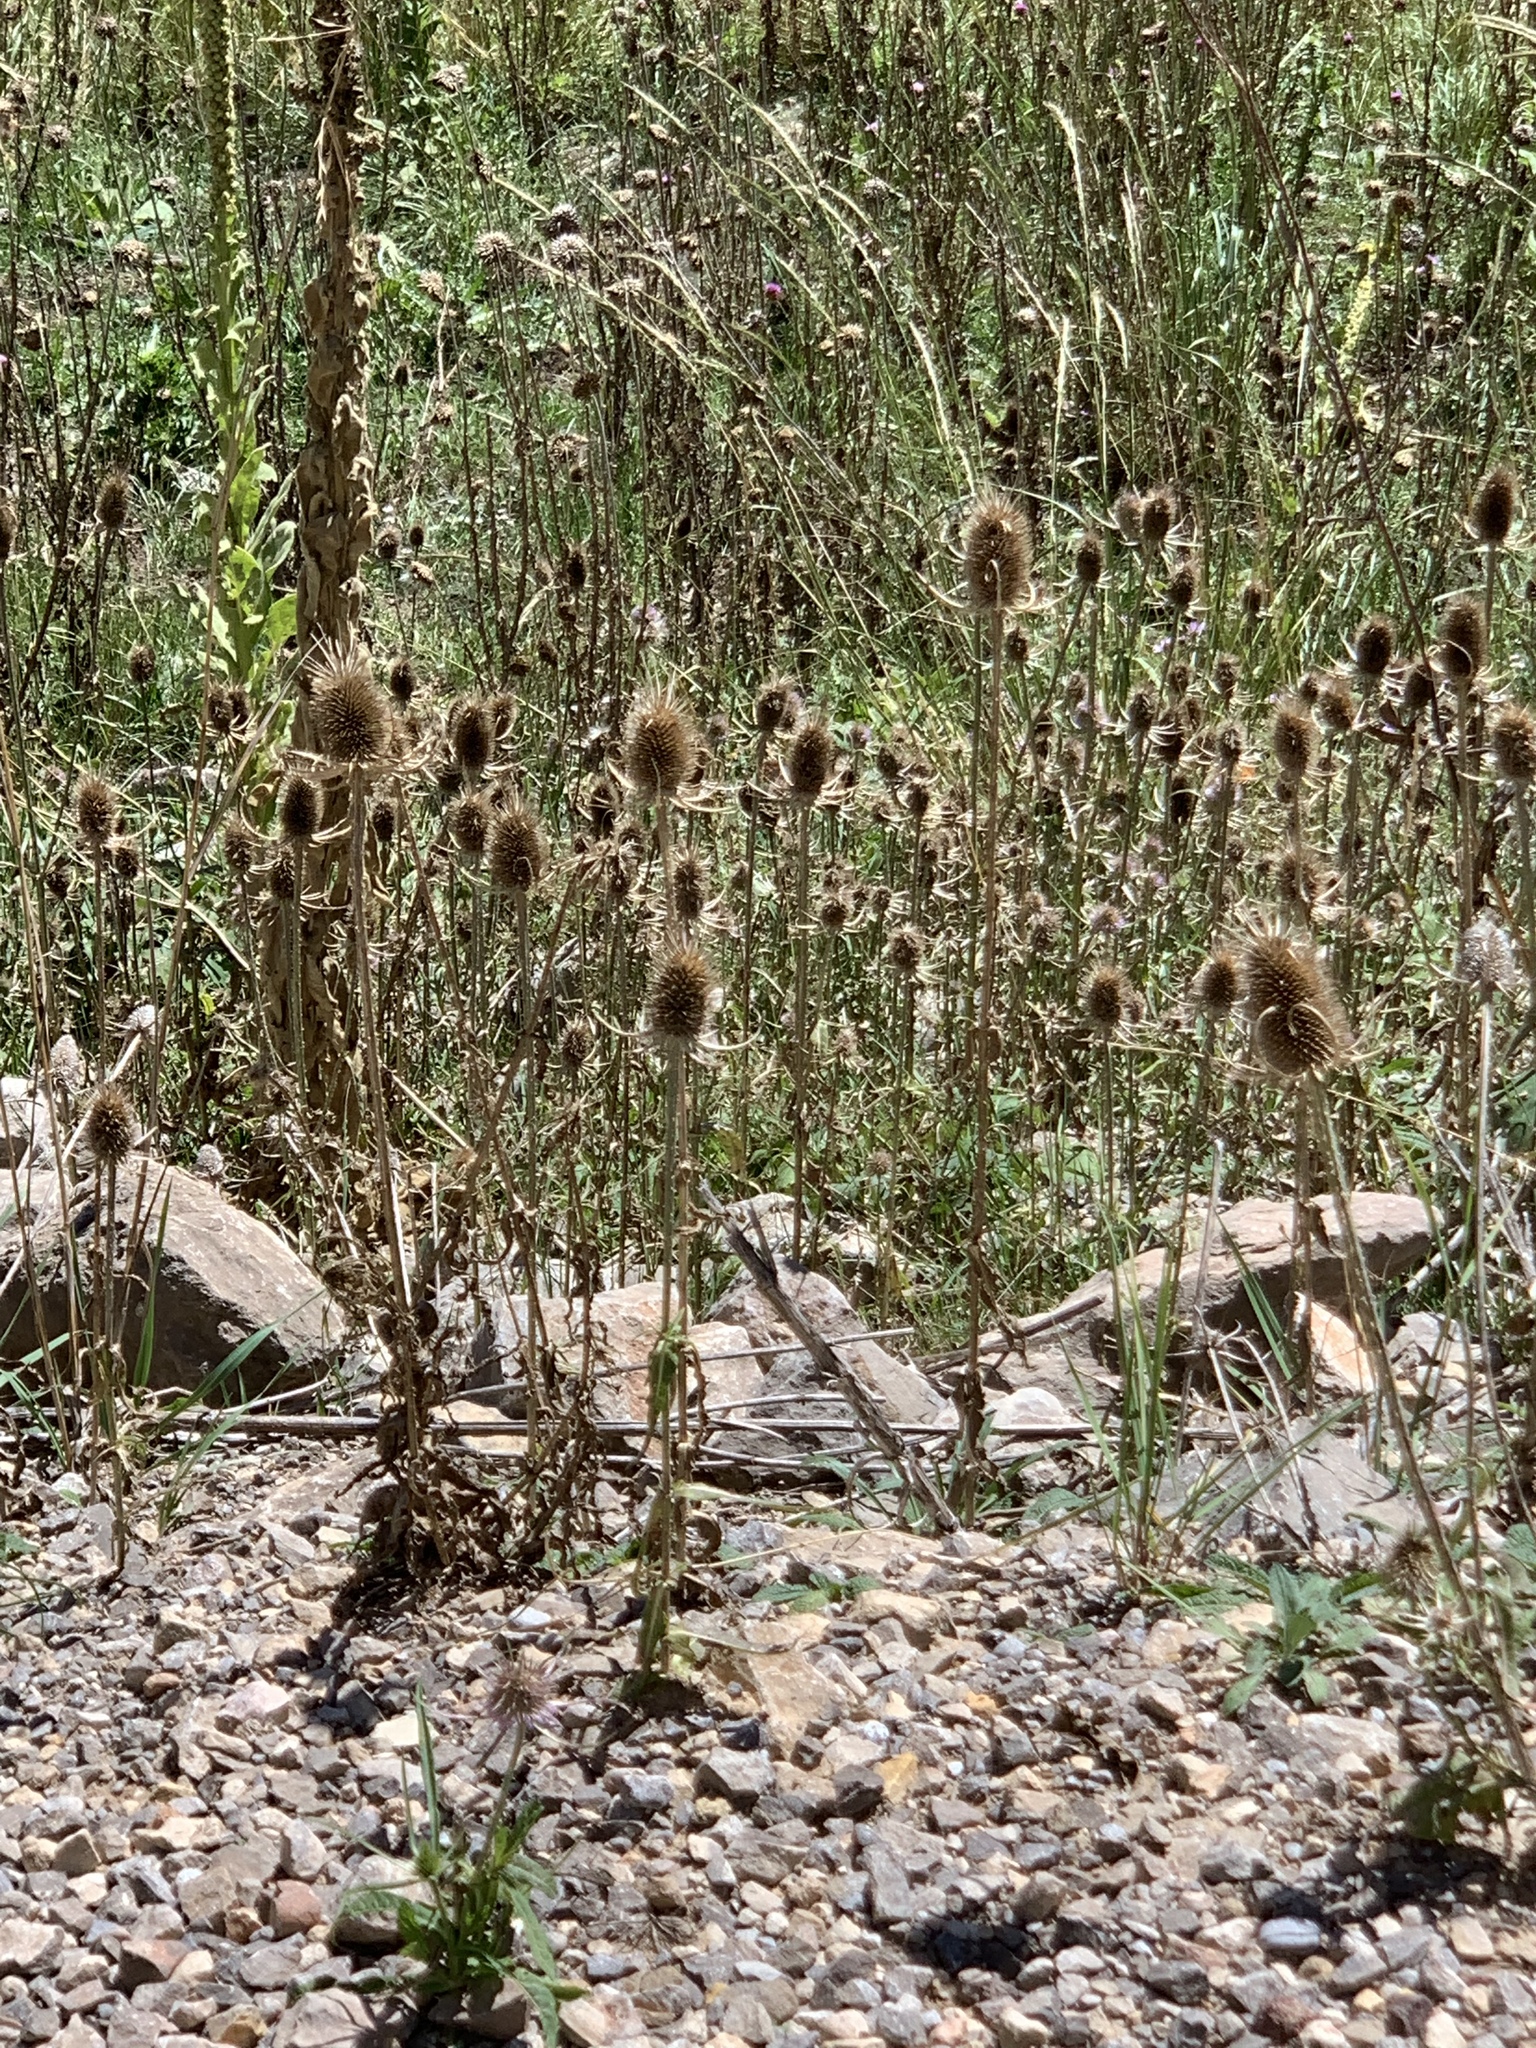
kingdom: Plantae
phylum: Tracheophyta
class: Magnoliopsida
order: Dipsacales
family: Caprifoliaceae
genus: Dipsacus
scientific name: Dipsacus fullonum
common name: Teasel
